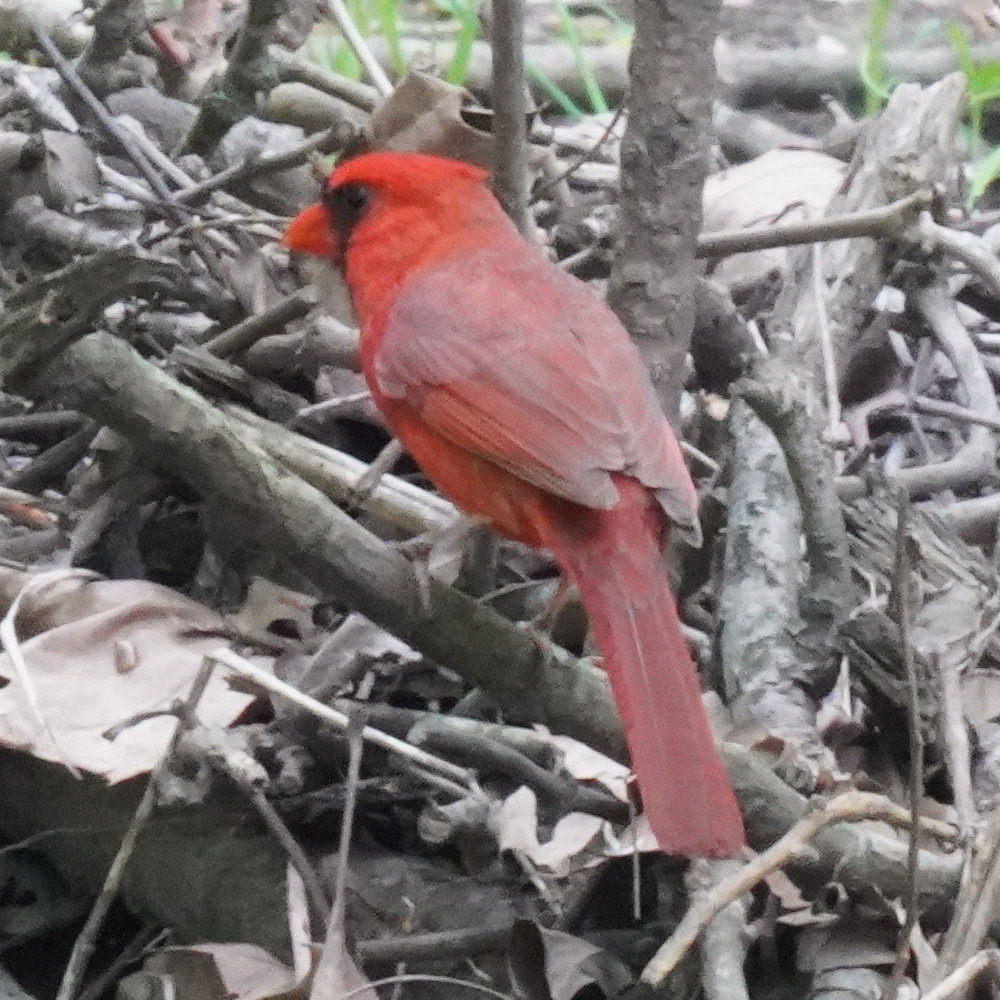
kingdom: Animalia
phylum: Chordata
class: Aves
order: Passeriformes
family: Cardinalidae
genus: Cardinalis
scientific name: Cardinalis cardinalis
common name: Northern cardinal
